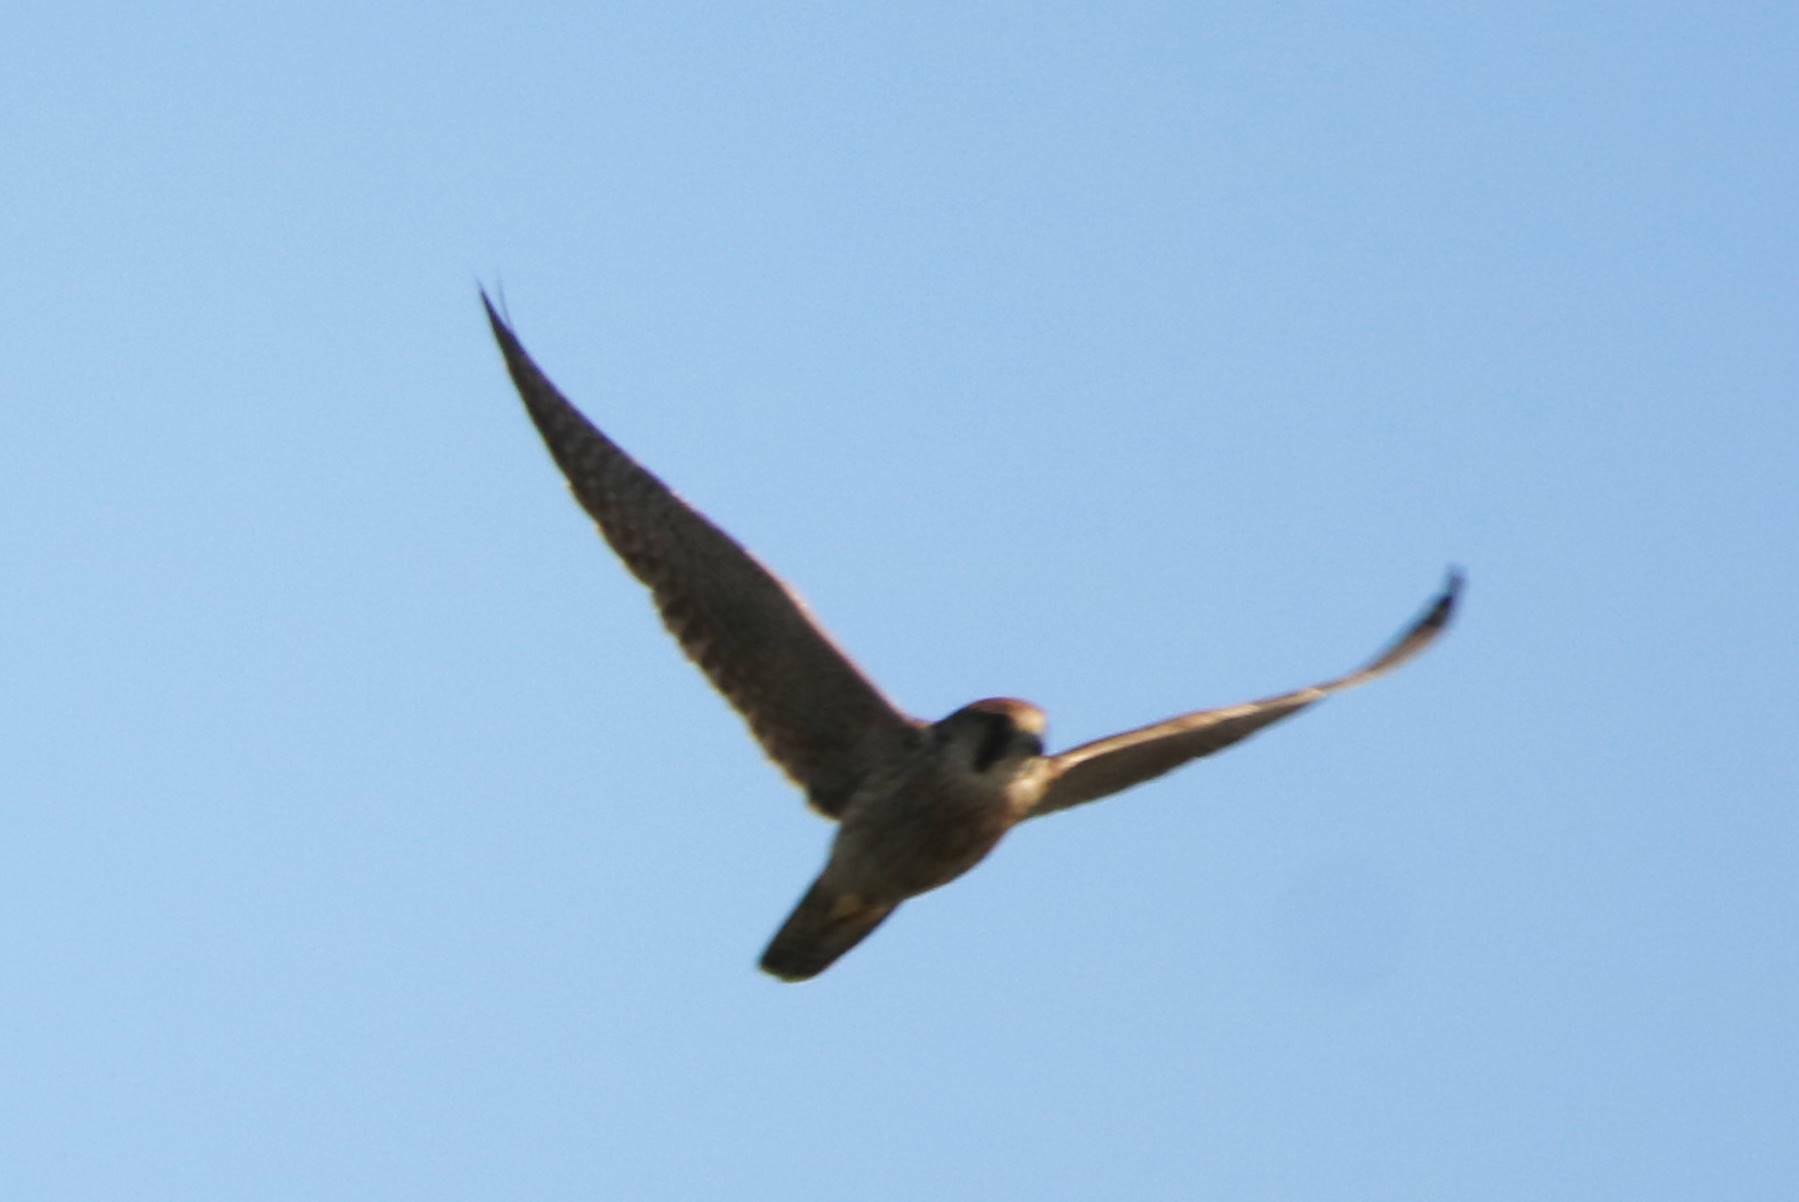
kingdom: Animalia
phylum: Chordata
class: Aves
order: Falconiformes
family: Falconidae
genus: Falco
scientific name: Falco biarmicus
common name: Lanner falcon
